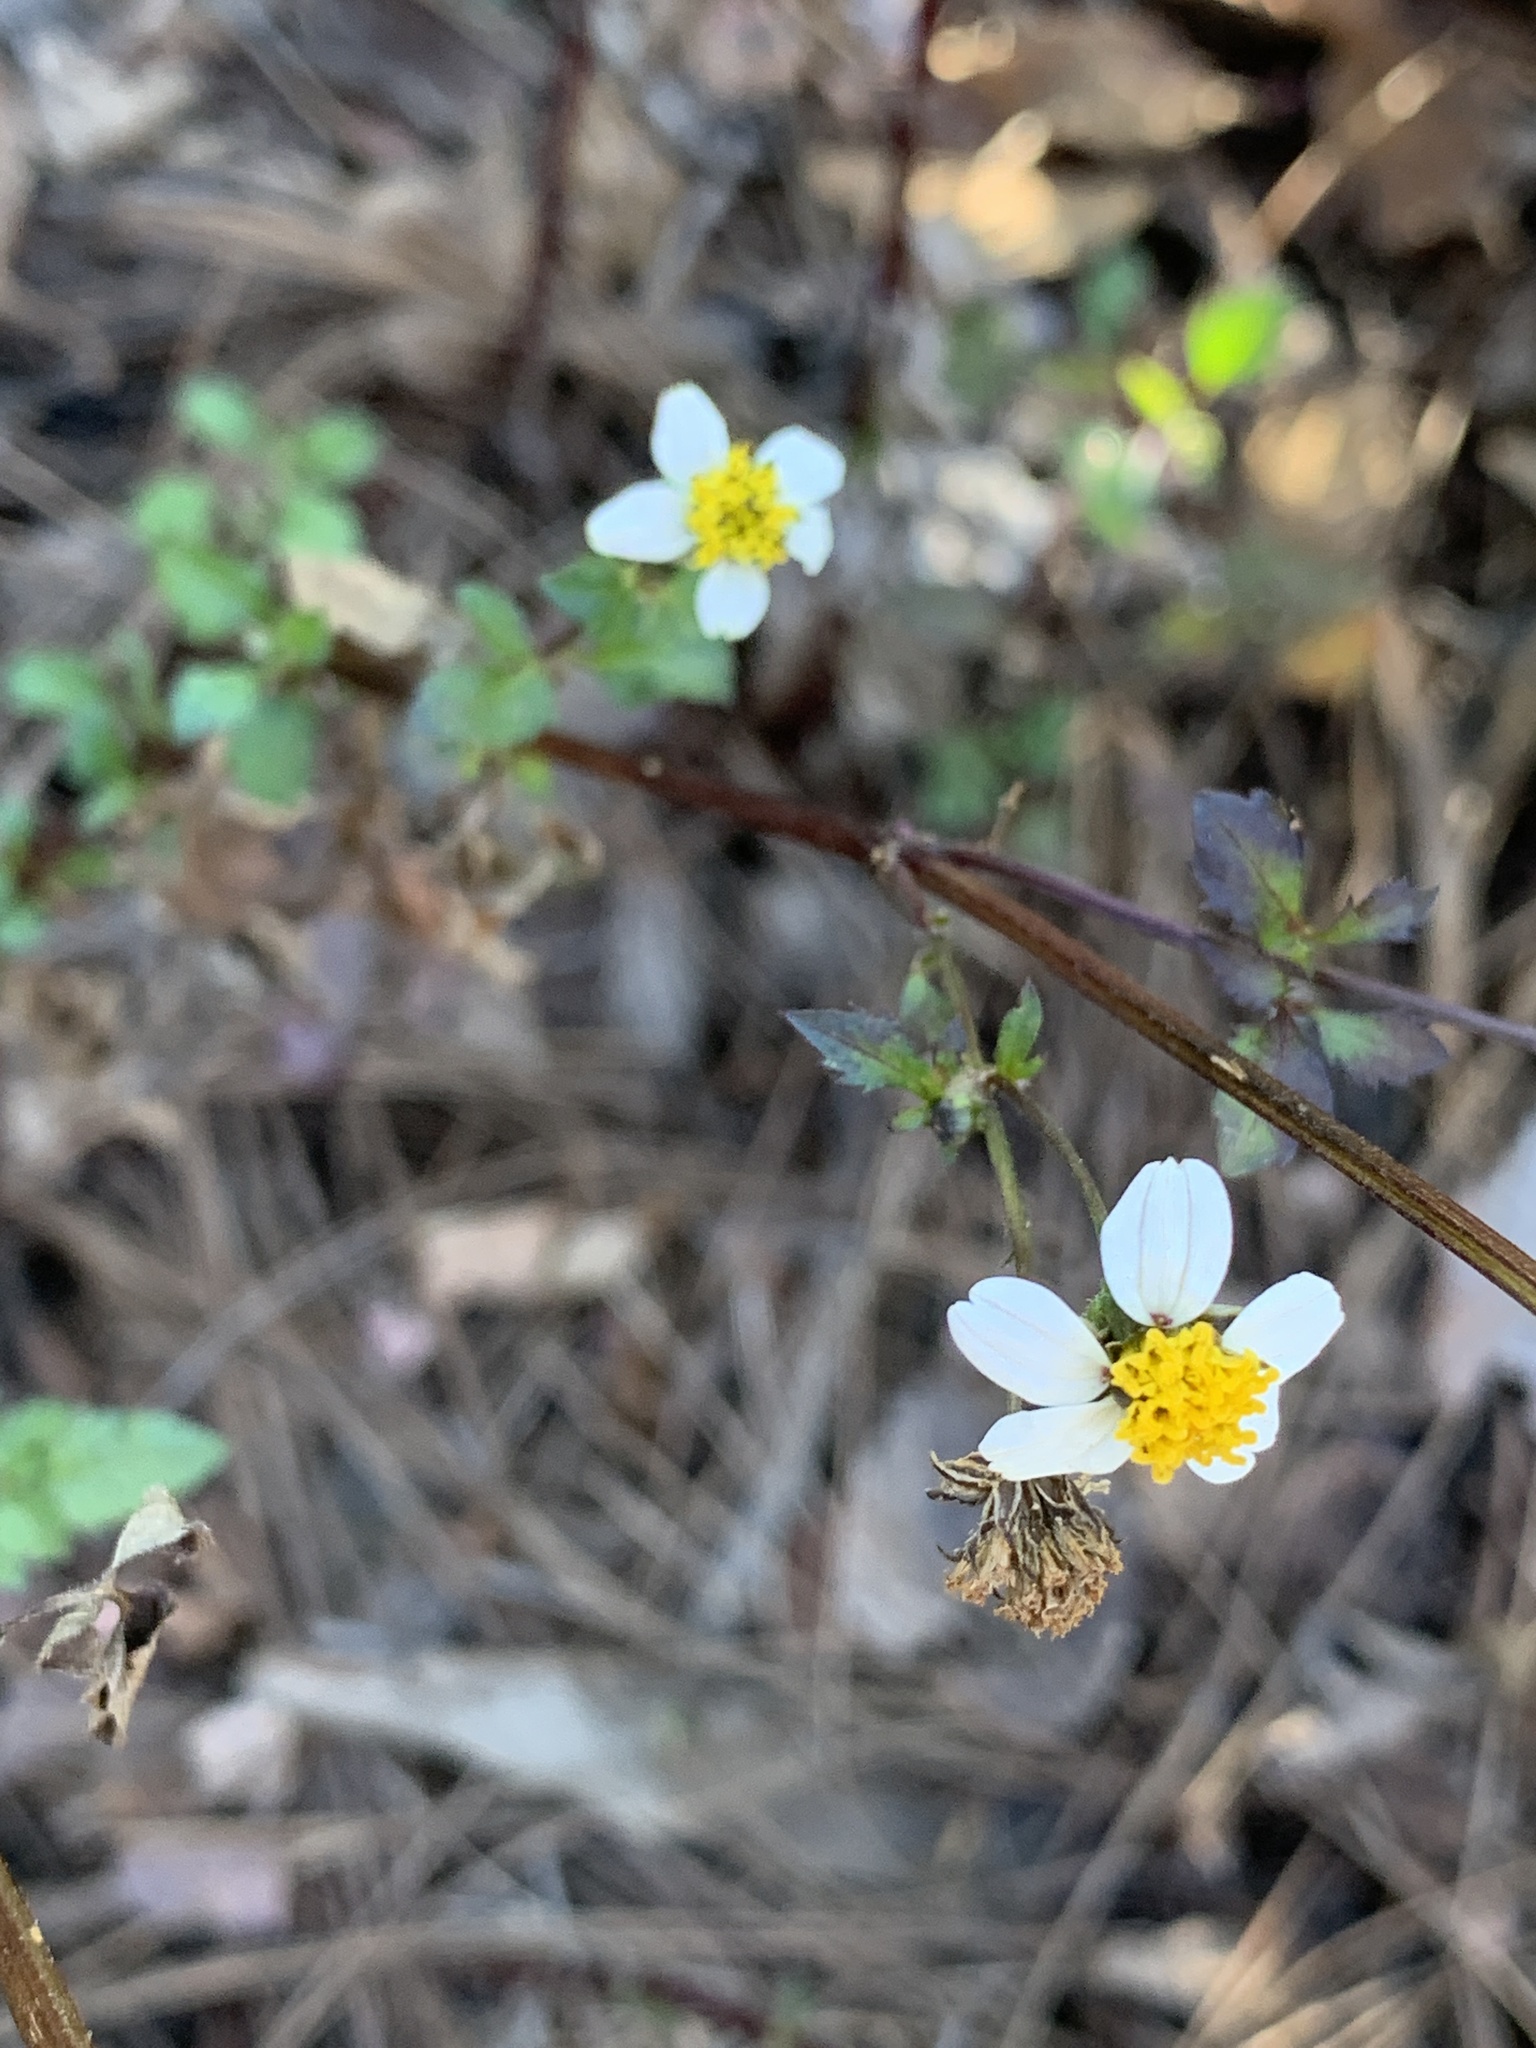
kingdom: Plantae
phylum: Tracheophyta
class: Magnoliopsida
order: Asterales
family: Asteraceae
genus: Bidens
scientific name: Bidens pilosa
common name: Black-jack
